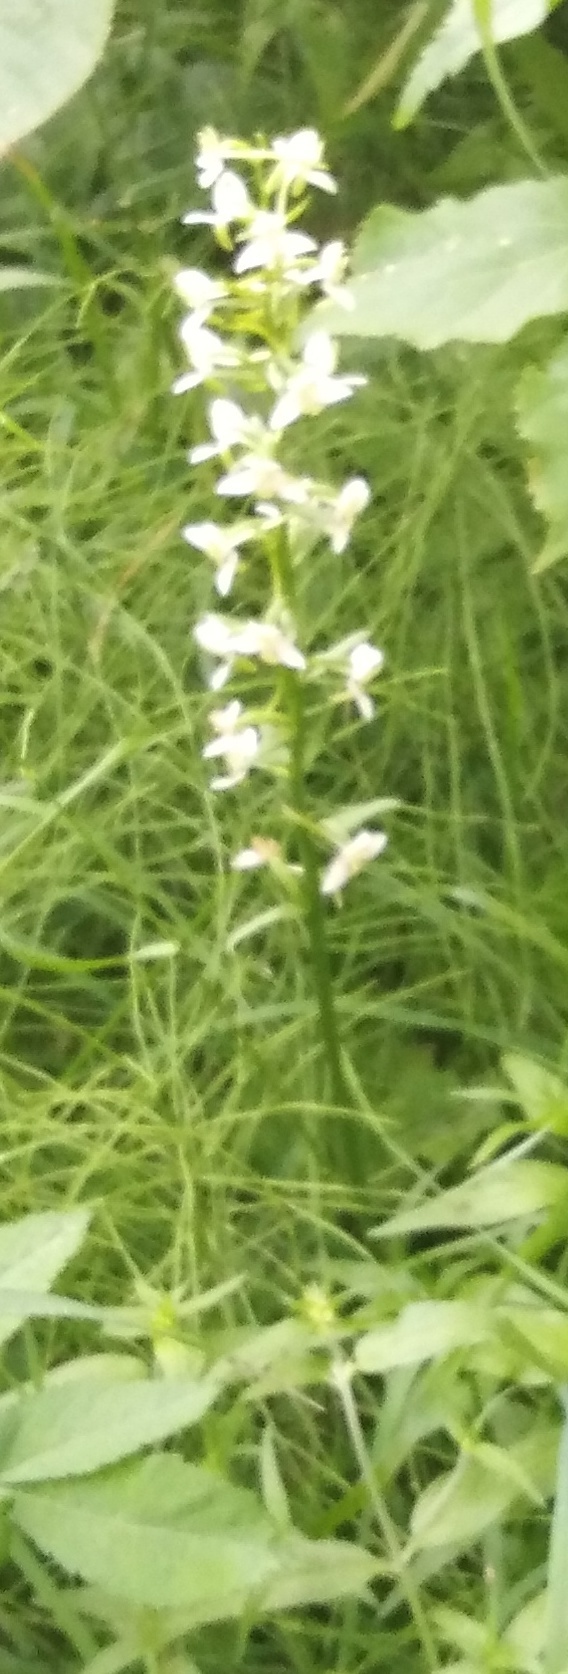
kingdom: Plantae
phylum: Tracheophyta
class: Liliopsida
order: Asparagales
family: Orchidaceae
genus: Platanthera
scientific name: Platanthera chlorantha
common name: Greater butterfly-orchid
